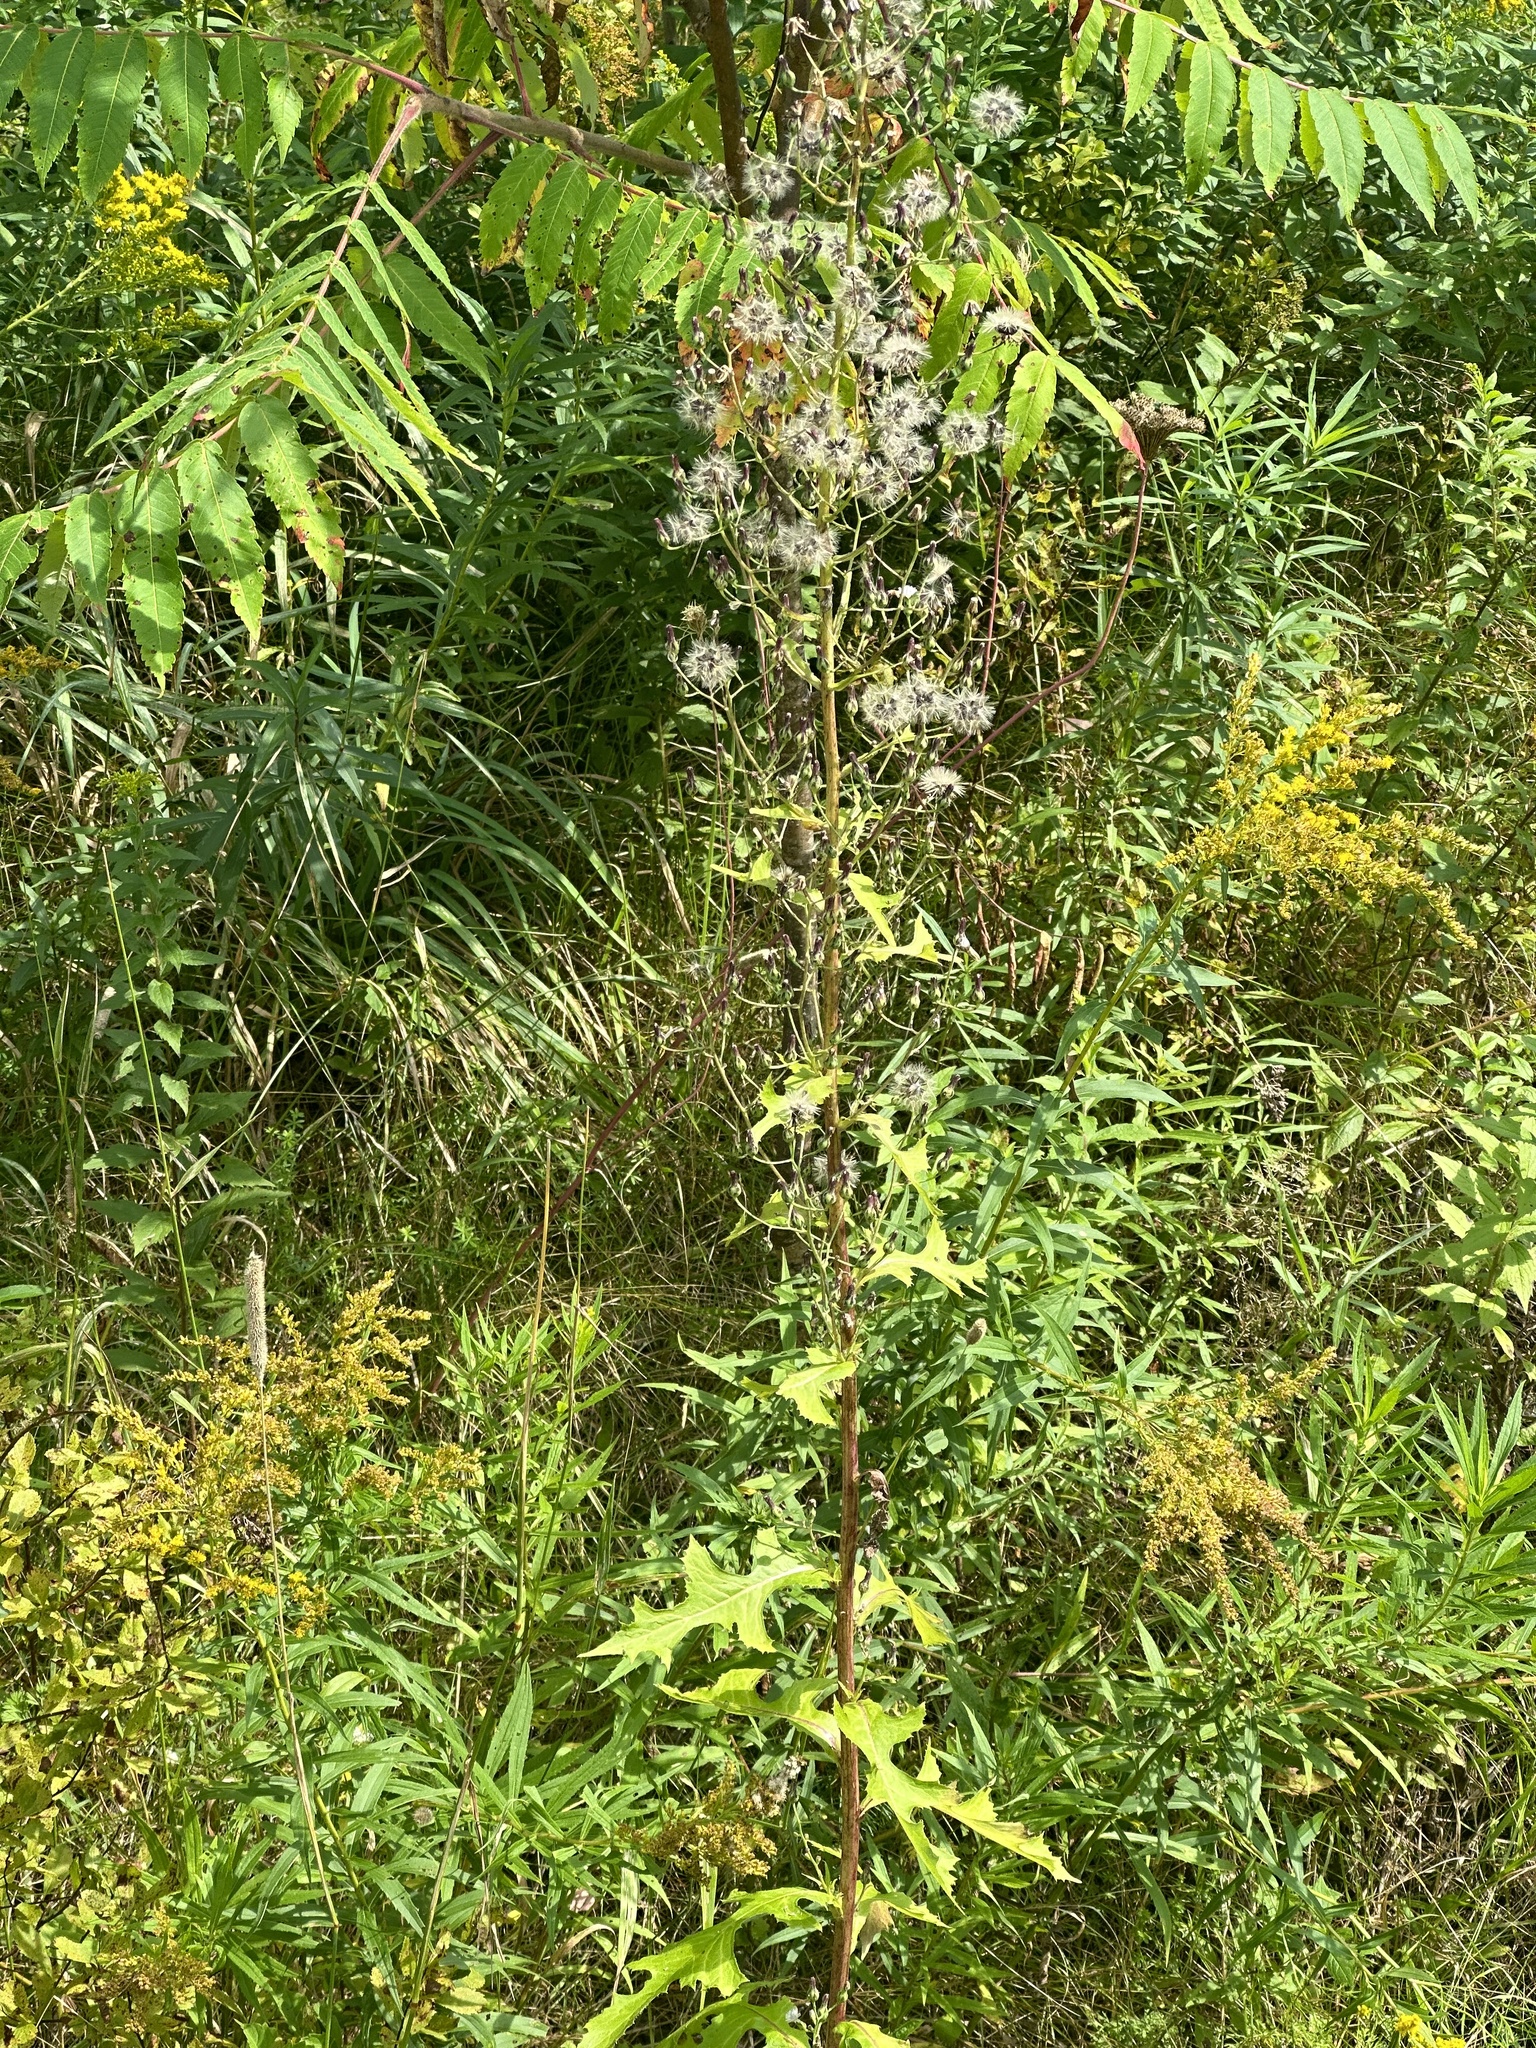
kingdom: Plantae
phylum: Tracheophyta
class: Magnoliopsida
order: Asterales
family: Asteraceae
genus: Lactuca
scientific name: Lactuca biennis
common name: Blue wood lettuce
